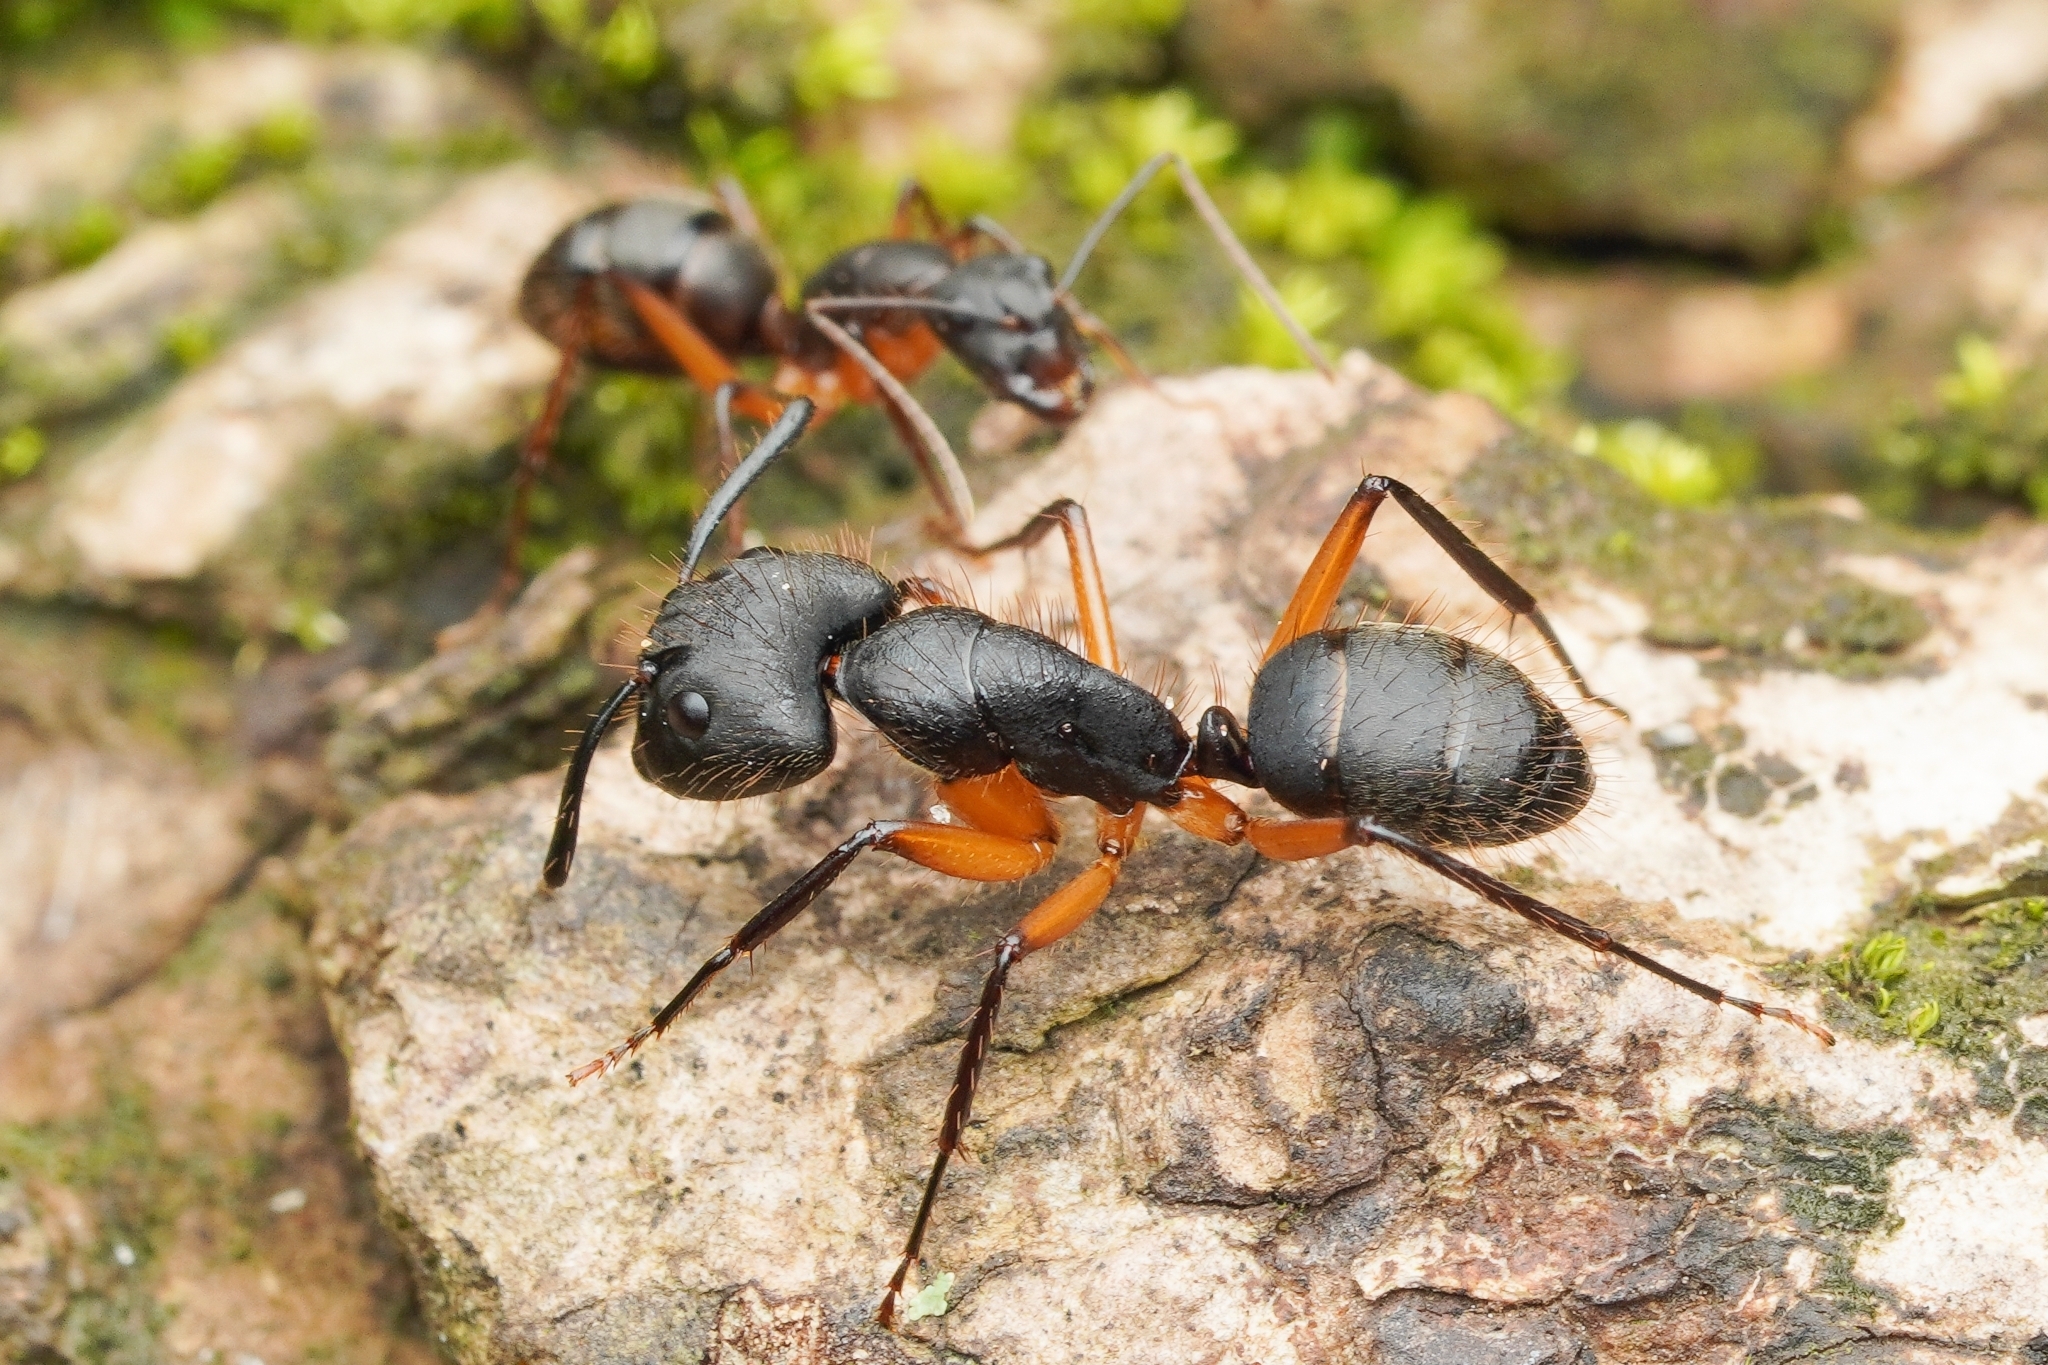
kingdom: Animalia
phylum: Arthropoda
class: Insecta
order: Hymenoptera
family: Formicidae
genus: Camponotus
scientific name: Camponotus renggeri
